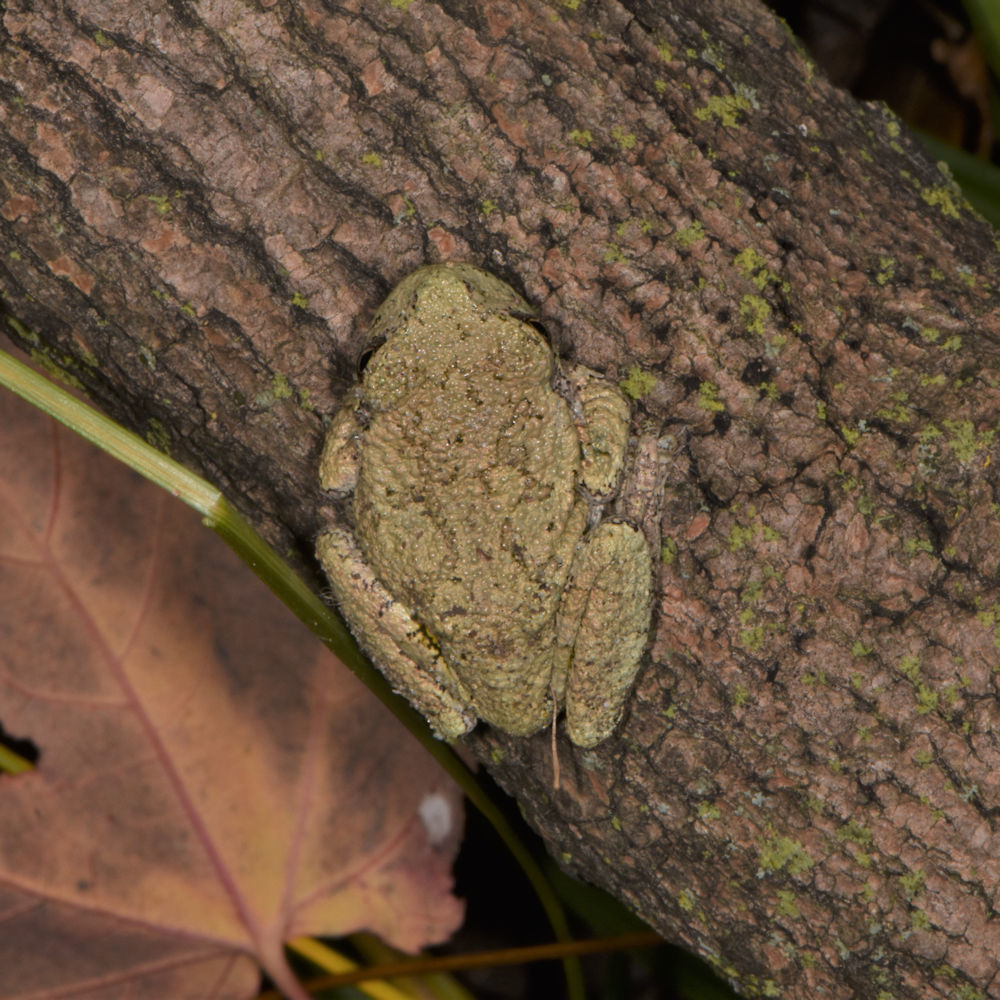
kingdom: Animalia
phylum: Chordata
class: Amphibia
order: Anura
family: Hylidae
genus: Dryophytes
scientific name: Dryophytes versicolor
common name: Gray treefrog
